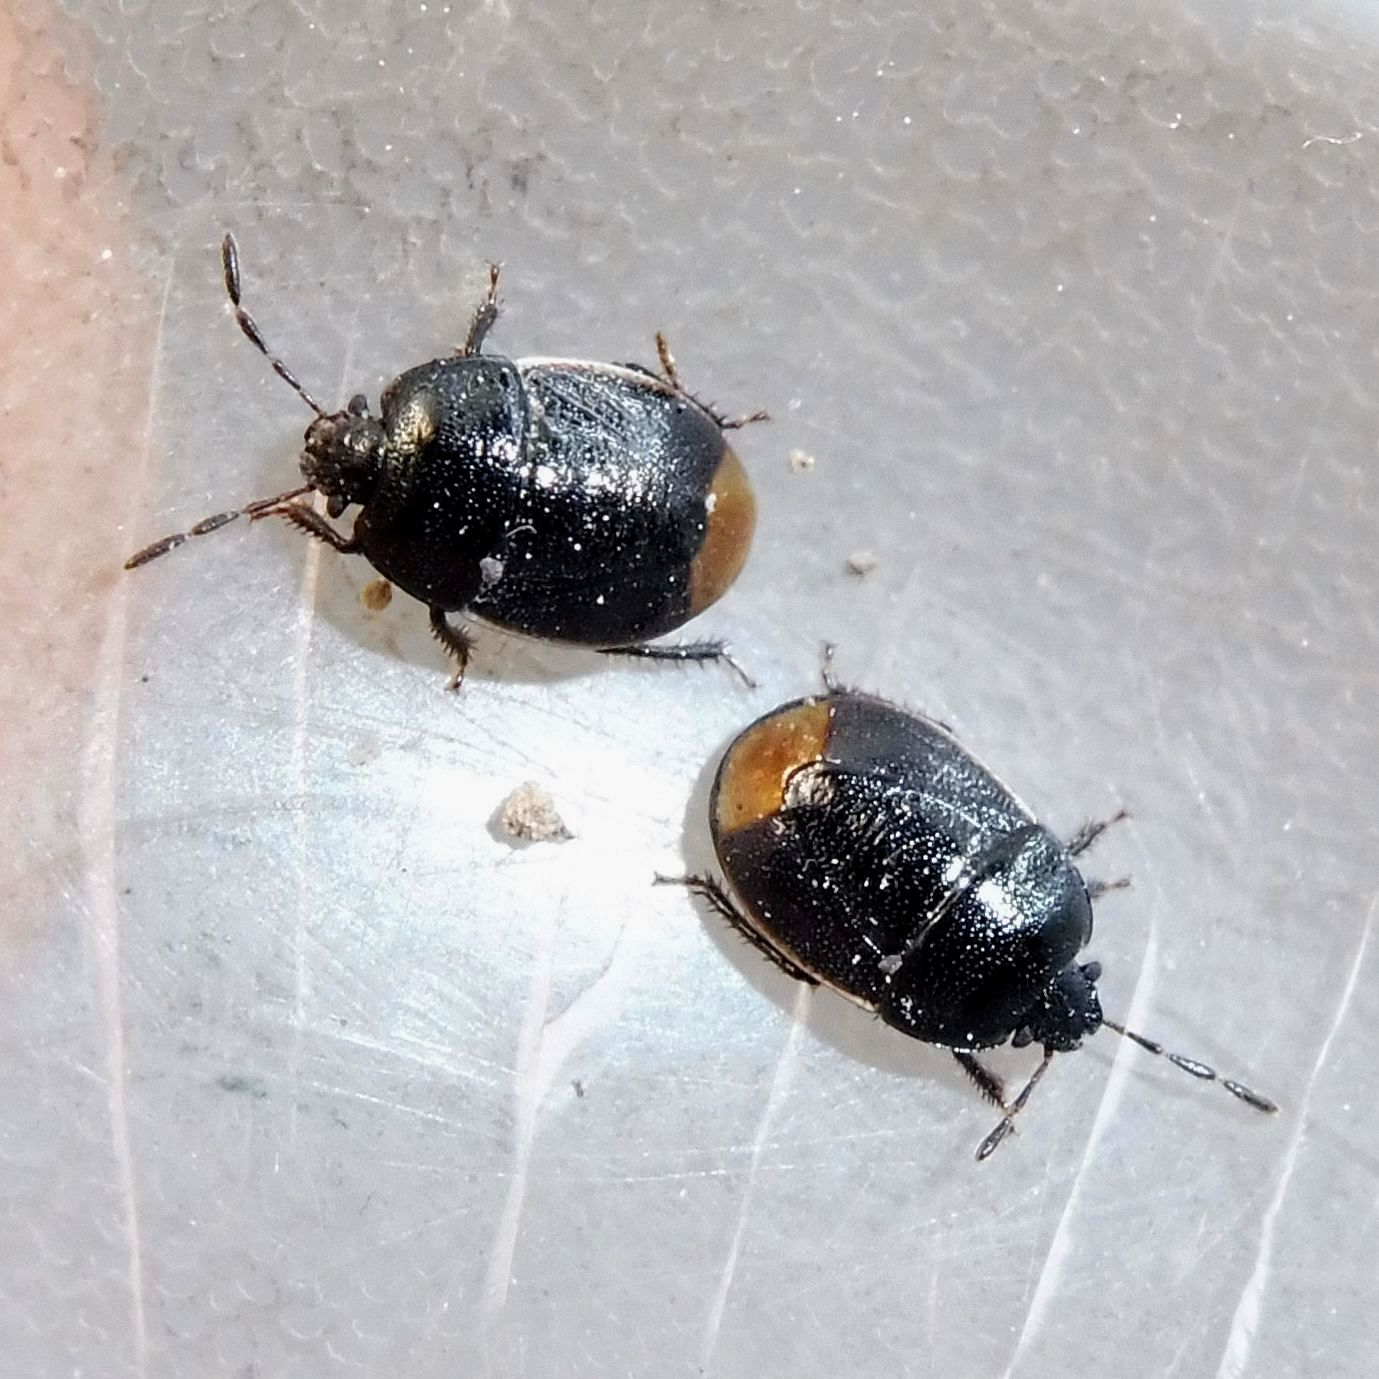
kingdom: Animalia
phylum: Arthropoda
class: Insecta
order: Hemiptera
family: Cydnidae
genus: Legnotus
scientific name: Legnotus limbosus
